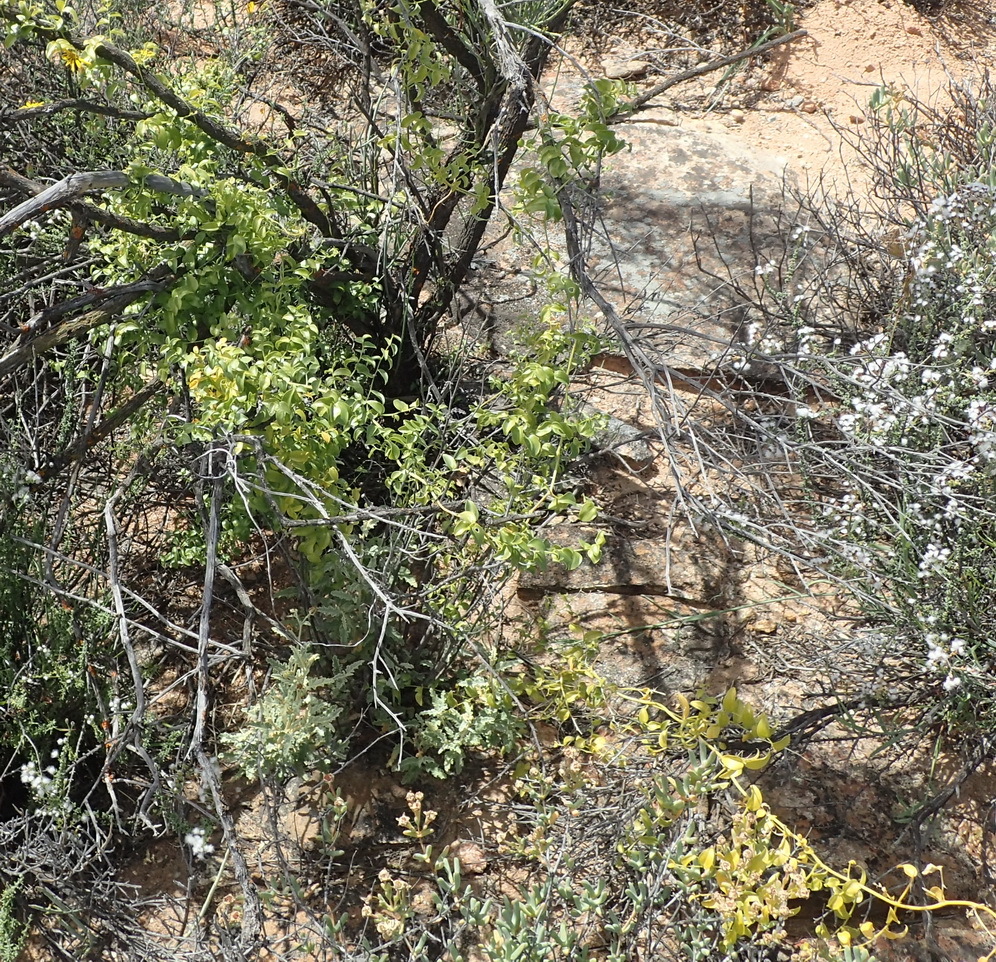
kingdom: Plantae
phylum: Tracheophyta
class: Liliopsida
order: Asparagales
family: Asparagaceae
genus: Asparagus
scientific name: Asparagus asparagoides
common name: African asparagus fern
